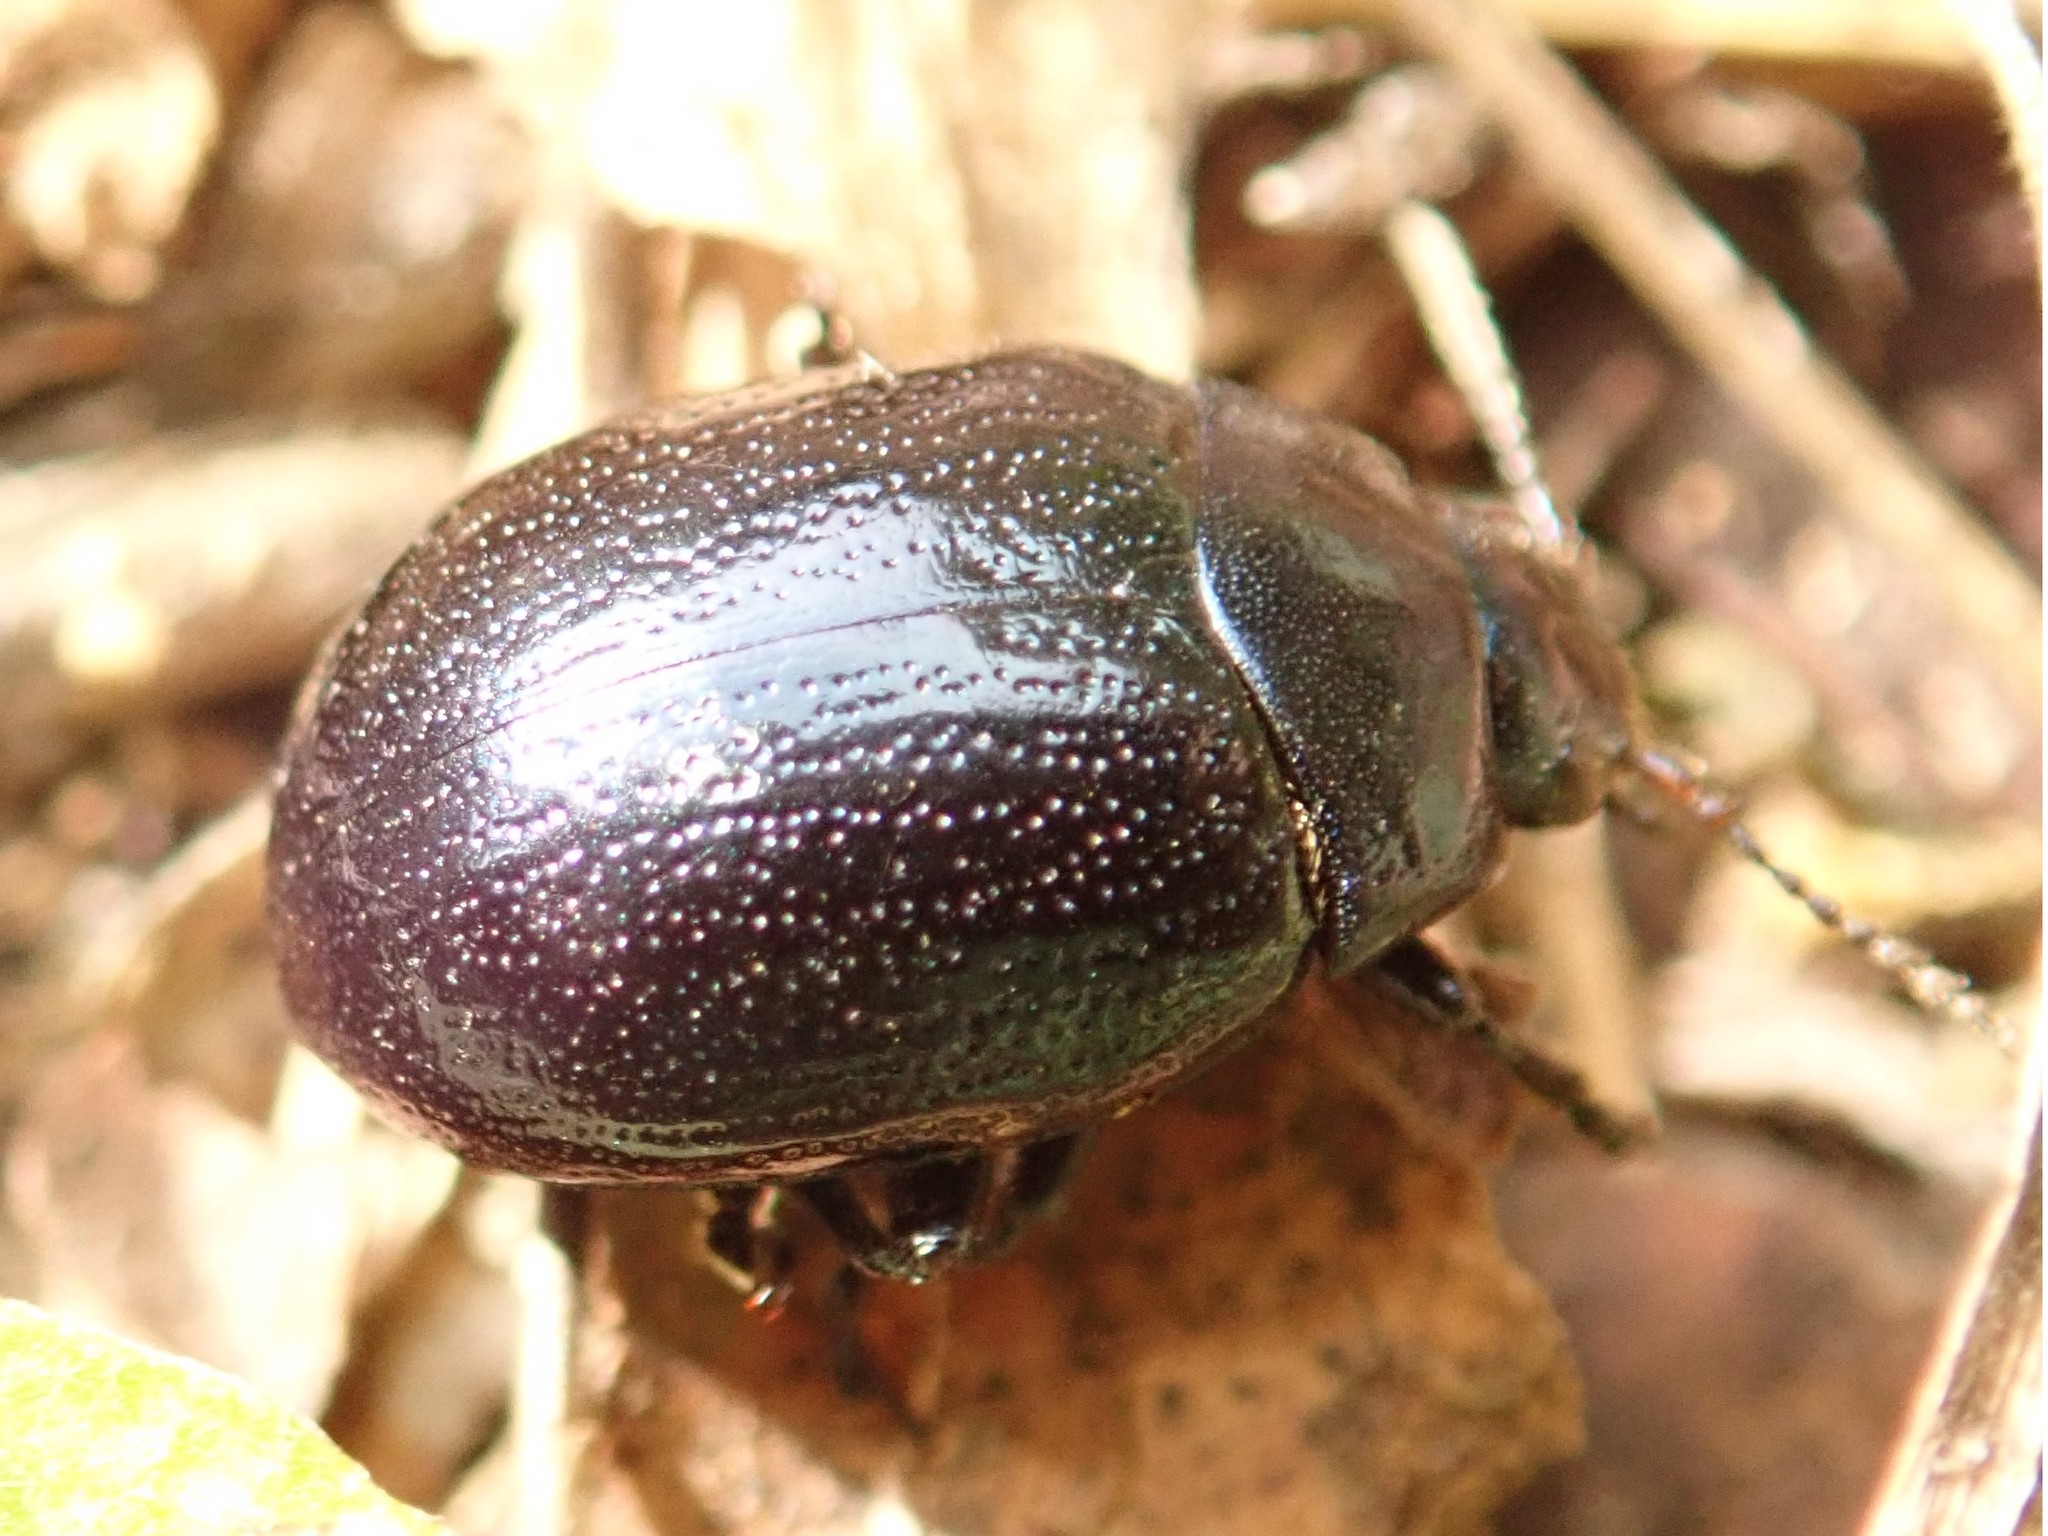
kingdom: Animalia
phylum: Arthropoda
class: Insecta
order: Coleoptera
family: Chrysomelidae
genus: Chrysolina
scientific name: Chrysolina haemoptera
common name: Plantain leaf beetle
